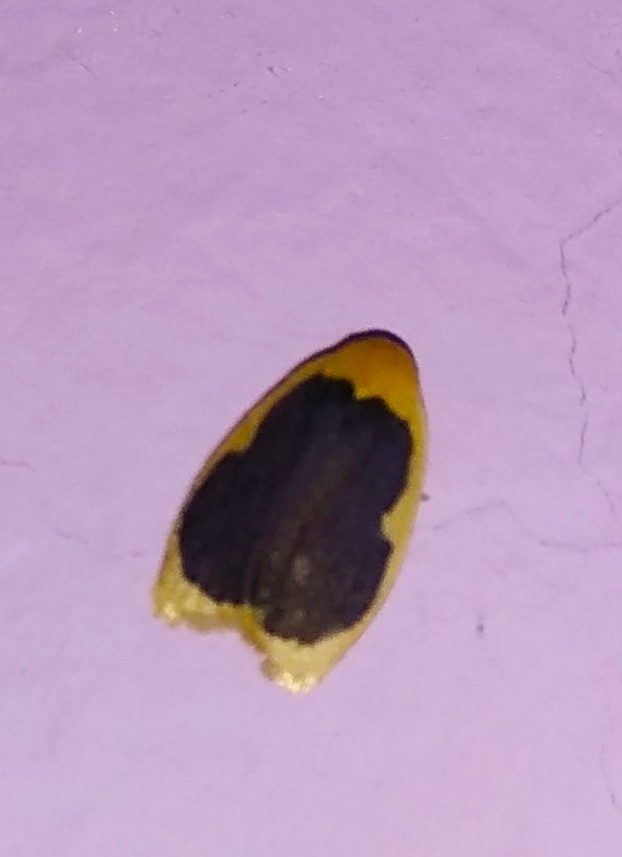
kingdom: Animalia
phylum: Arthropoda
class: Insecta
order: Lepidoptera
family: Erebidae
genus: Pseudoblabes
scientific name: Pseudoblabes oophora
